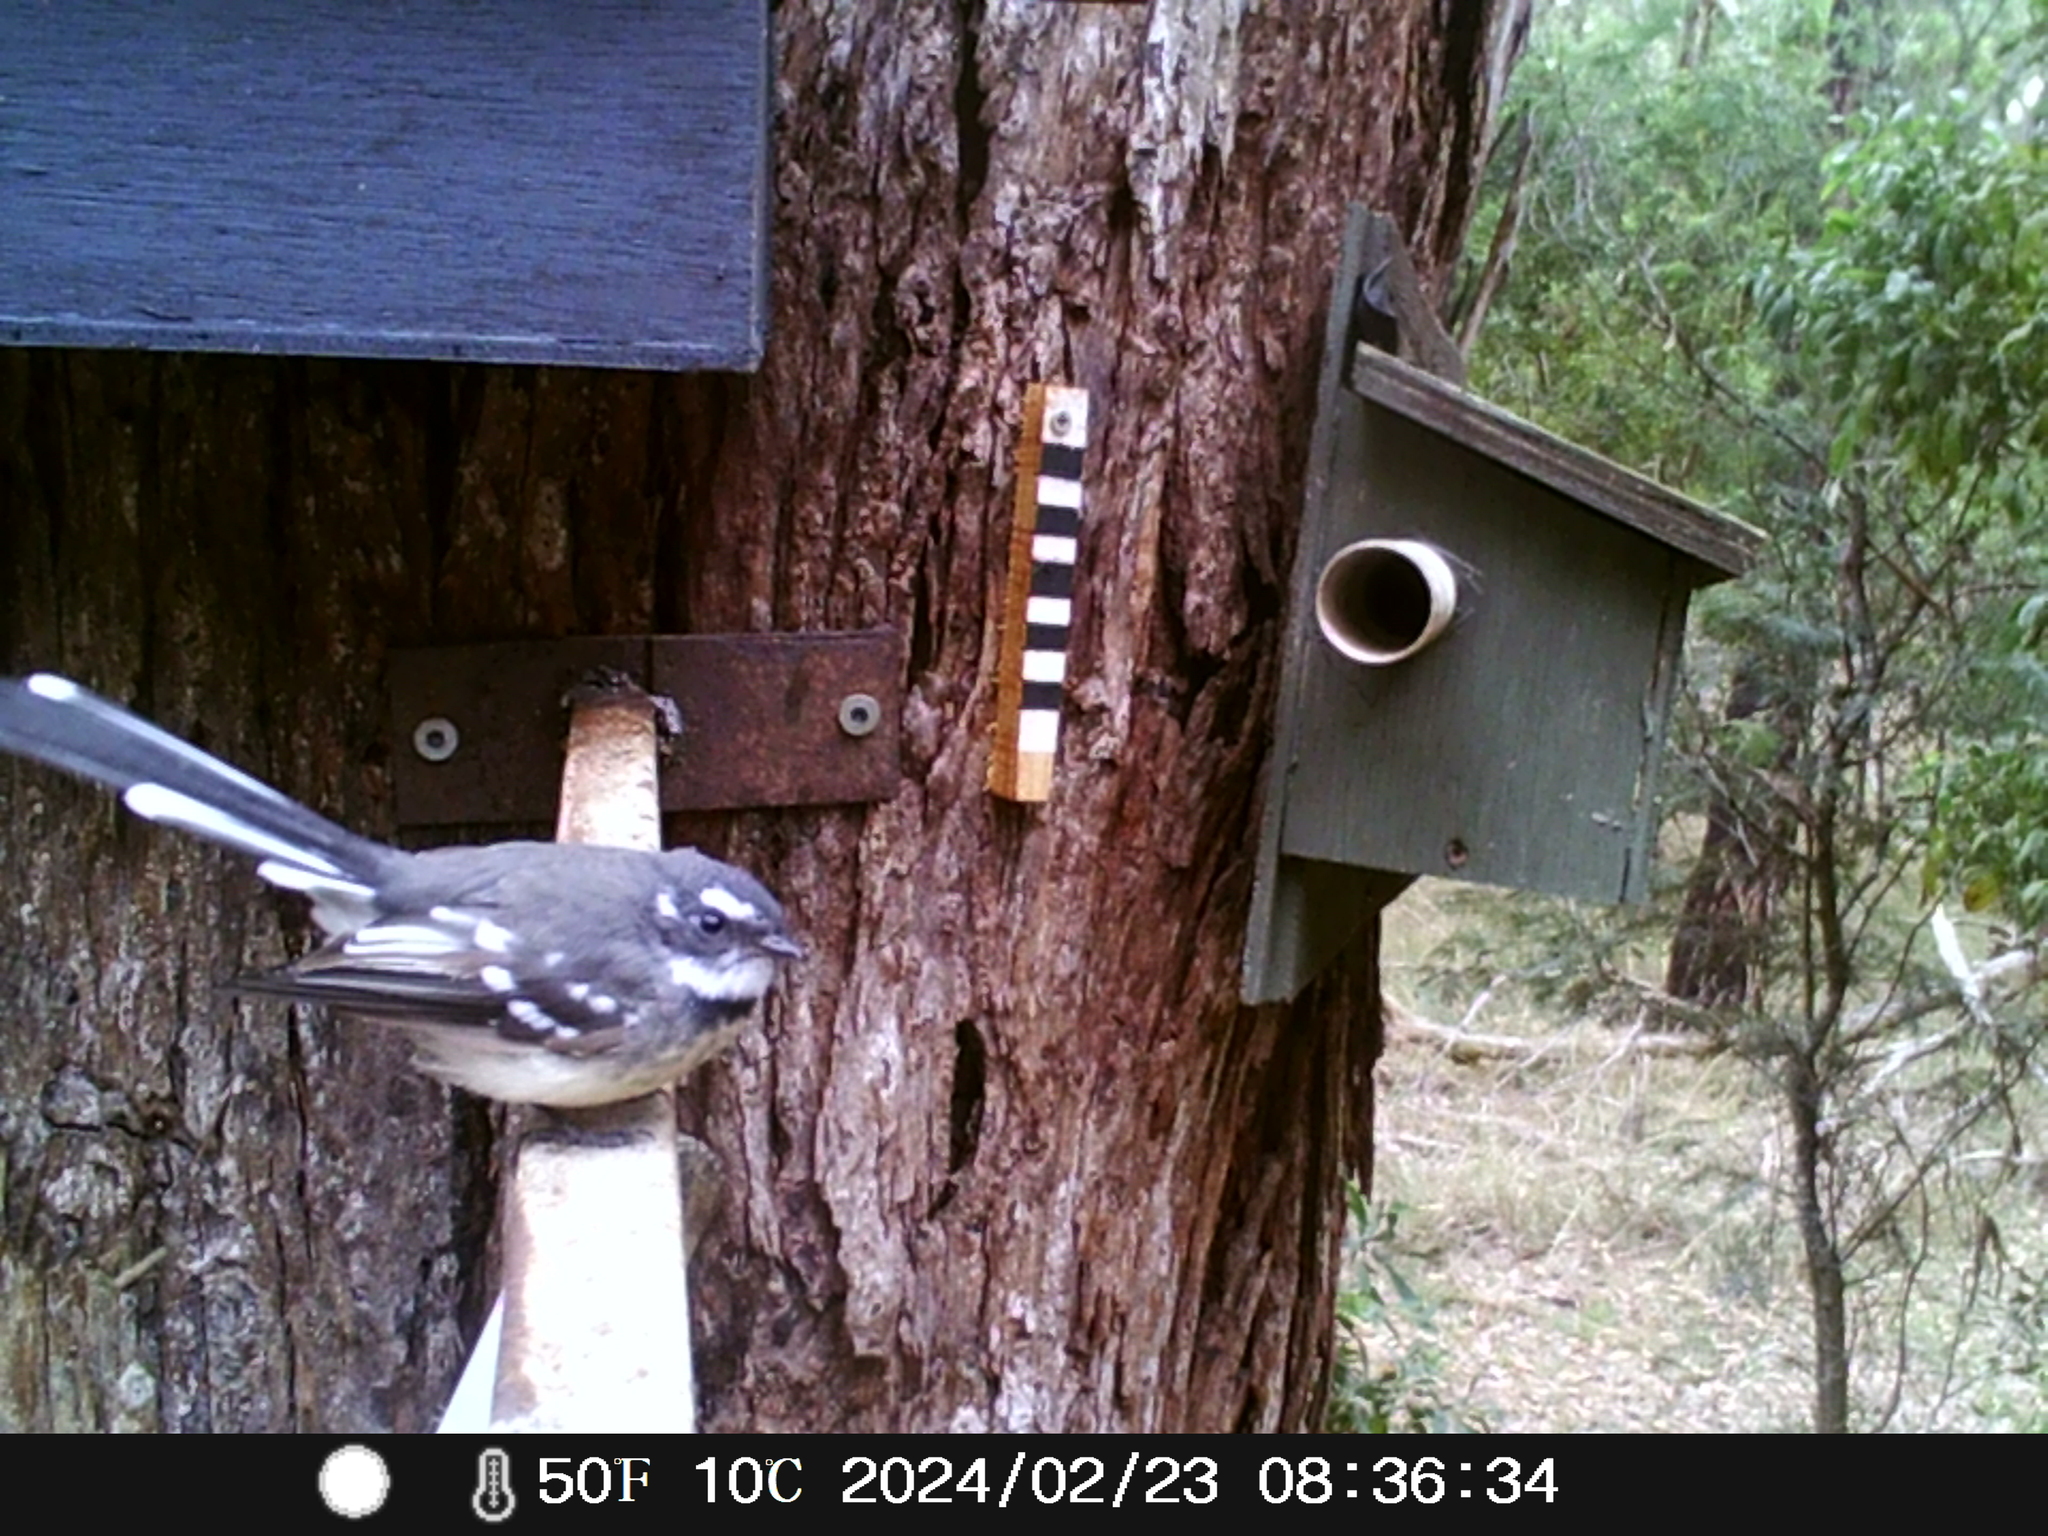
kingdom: Animalia
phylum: Chordata
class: Aves
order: Passeriformes
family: Rhipiduridae
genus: Rhipidura
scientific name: Rhipidura albiscapa
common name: Grey fantail
